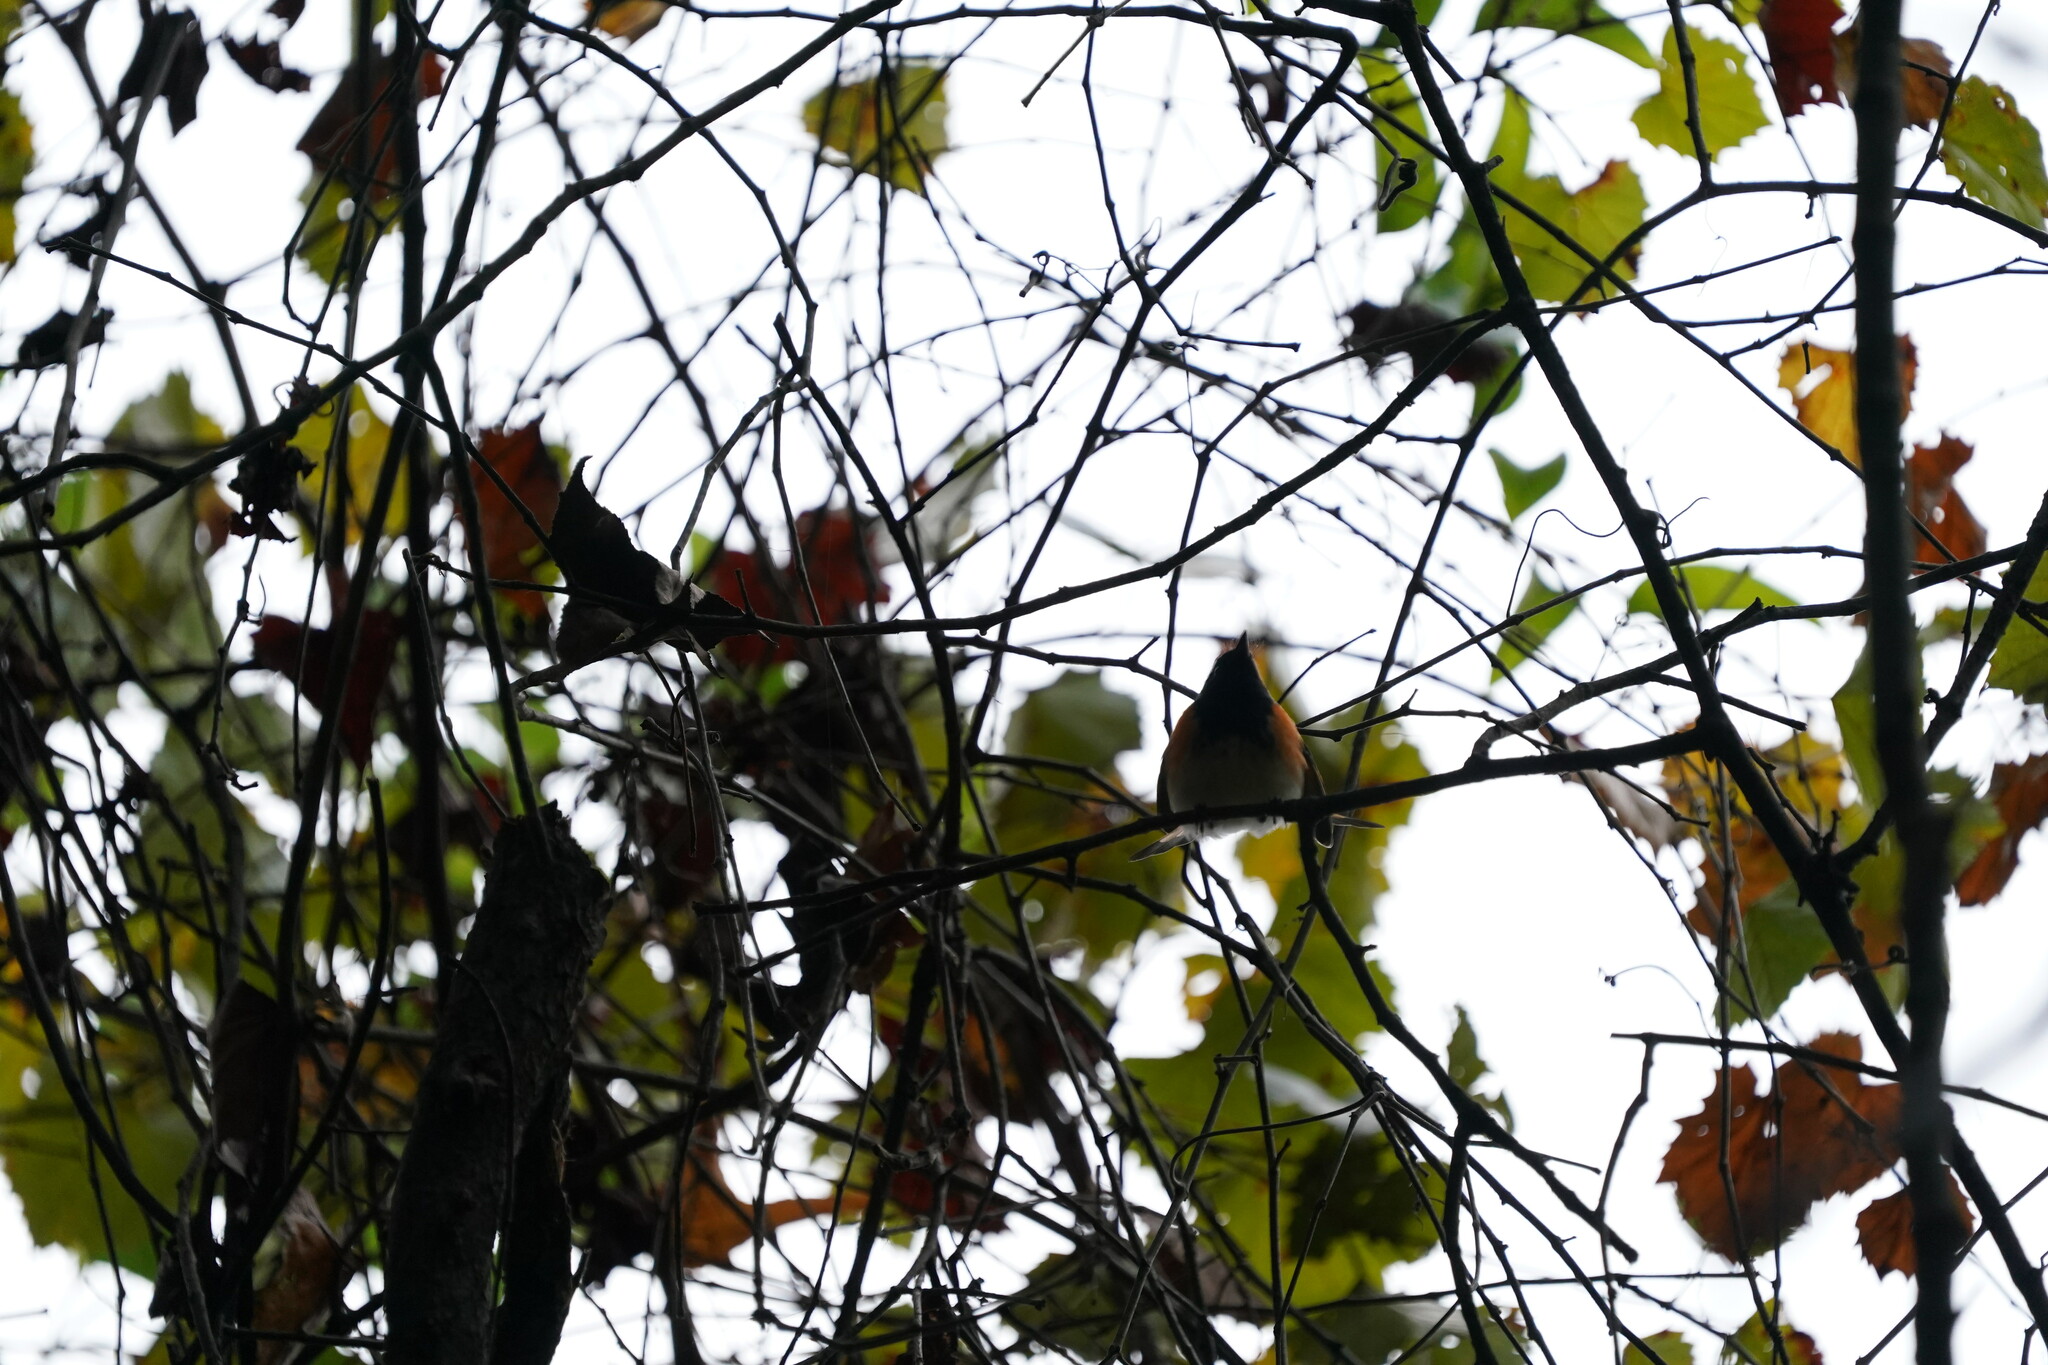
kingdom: Animalia
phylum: Chordata
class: Aves
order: Passeriformes
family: Parulidae
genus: Setophaga
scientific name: Setophaga ruticilla
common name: American redstart
